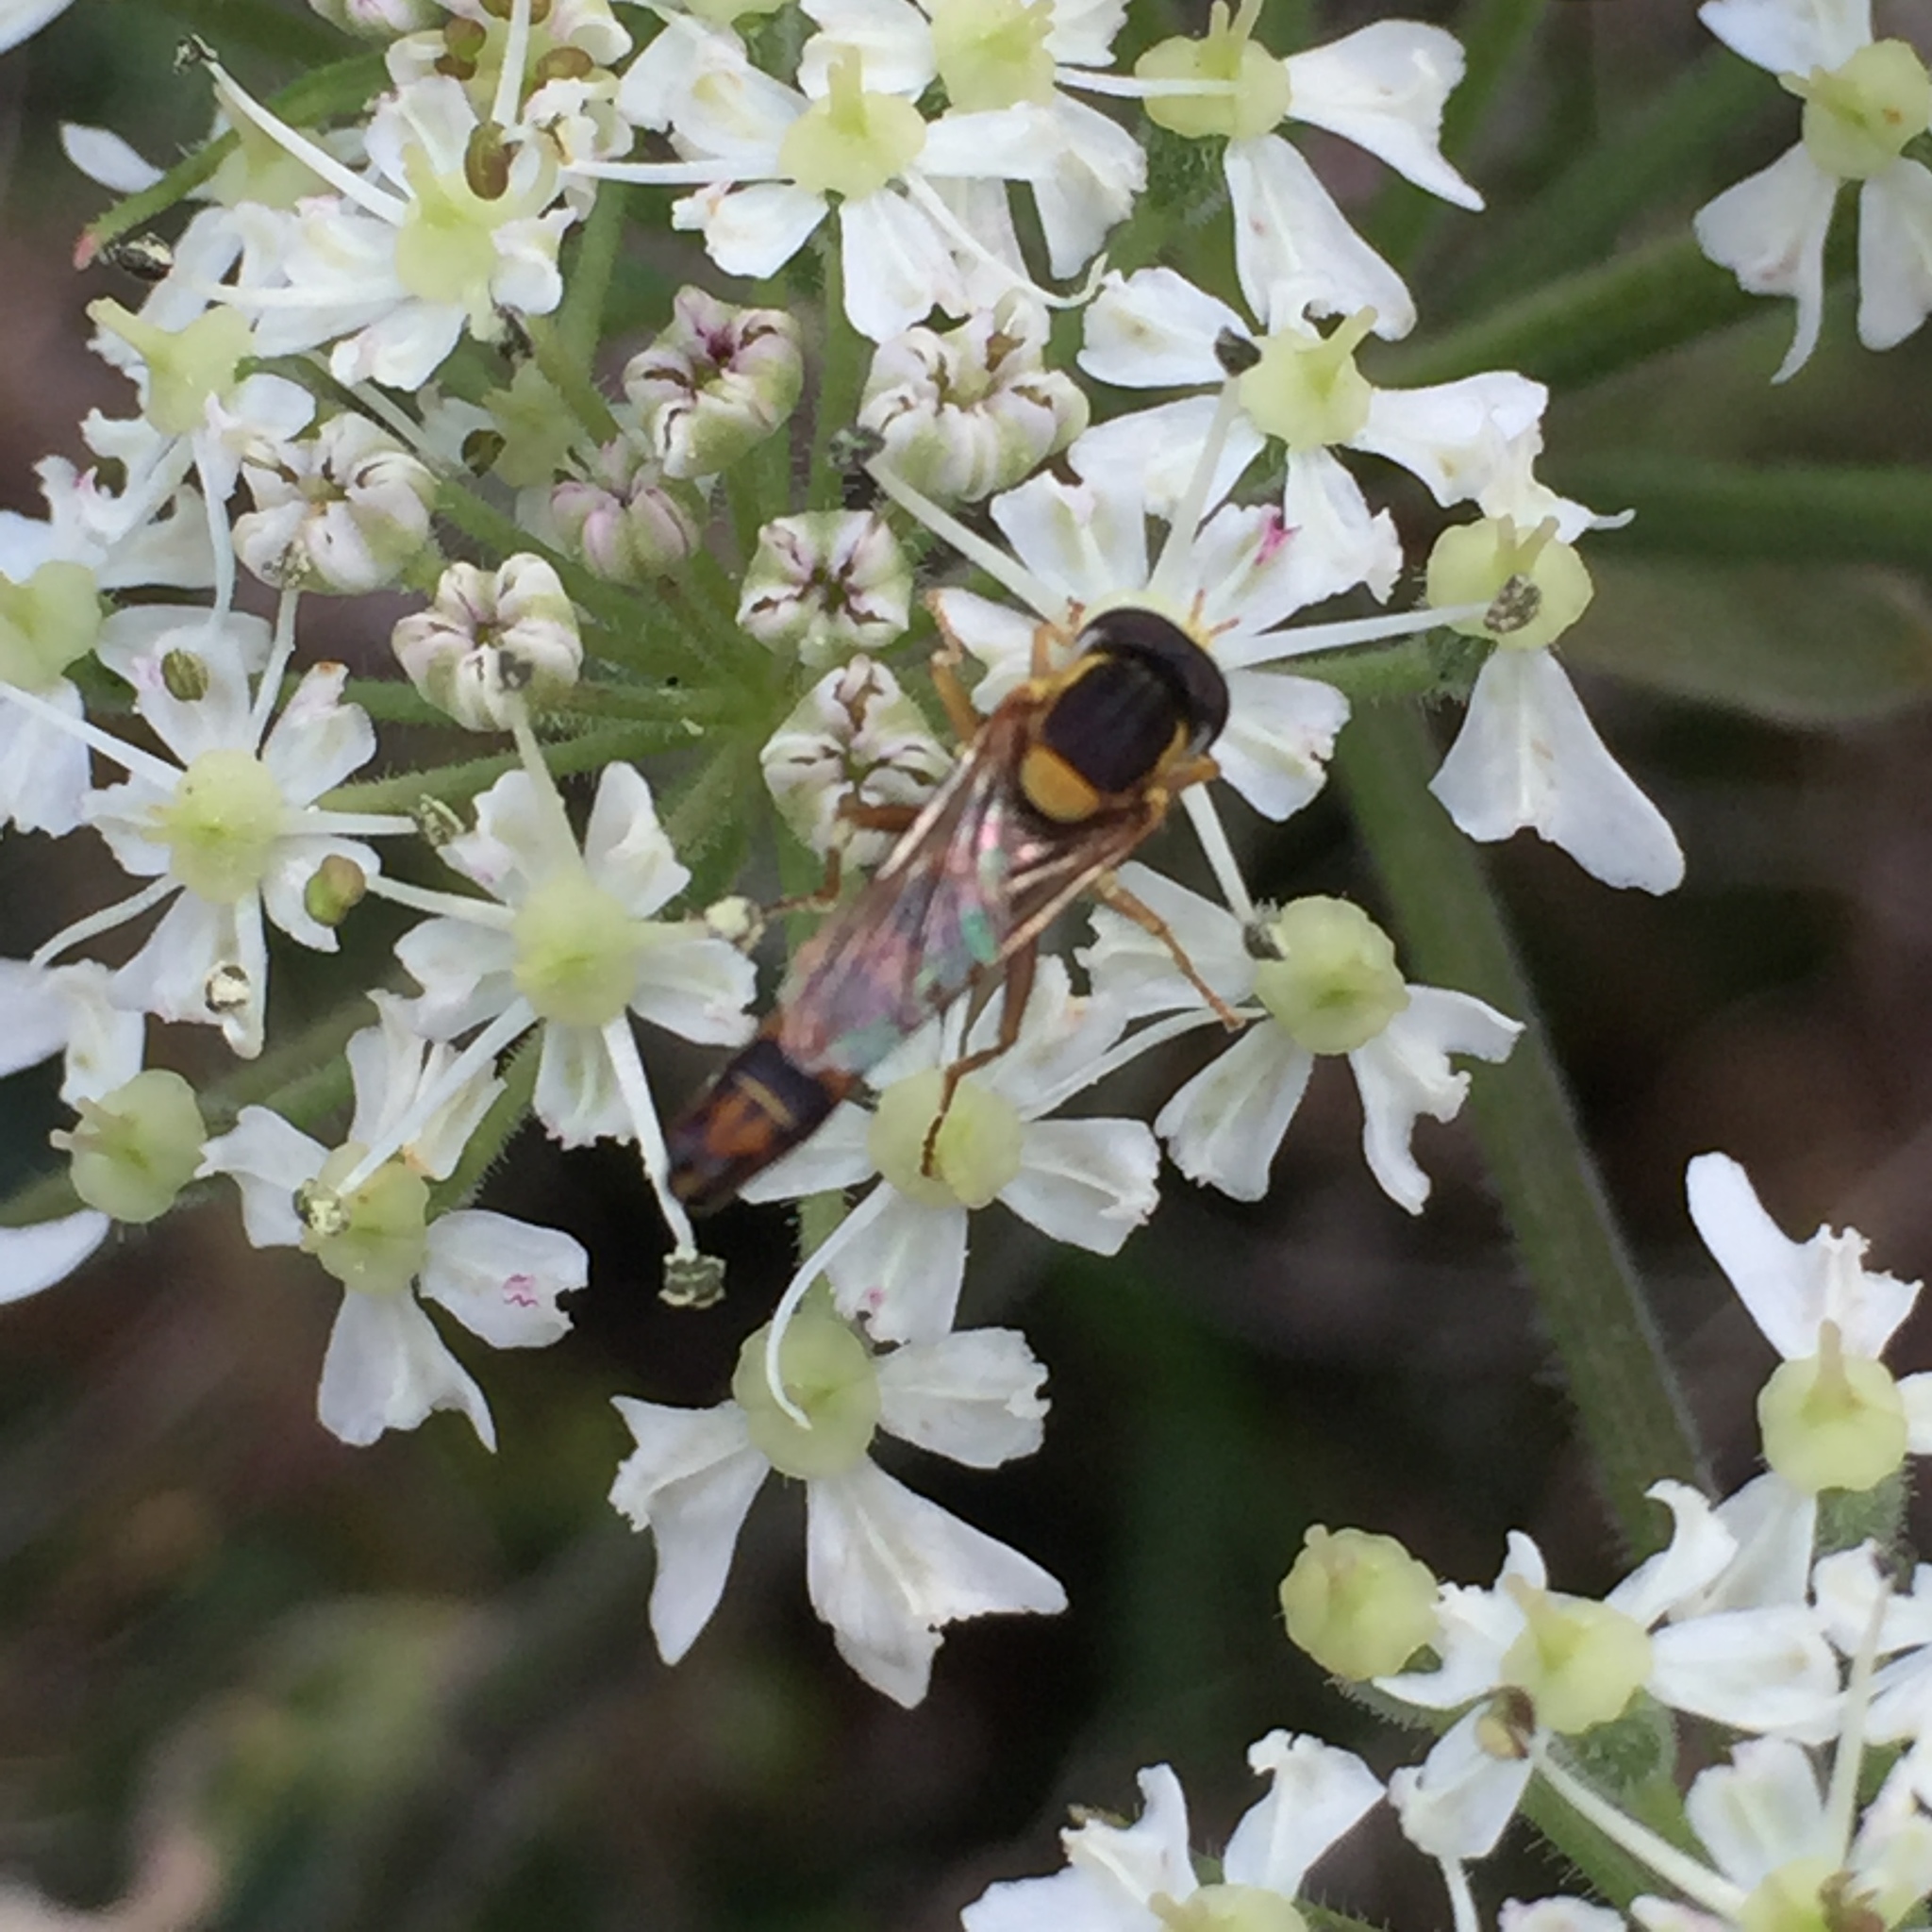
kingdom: Animalia
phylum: Arthropoda
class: Insecta
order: Diptera
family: Syrphidae
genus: Sphaerophoria
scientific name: Sphaerophoria scripta
